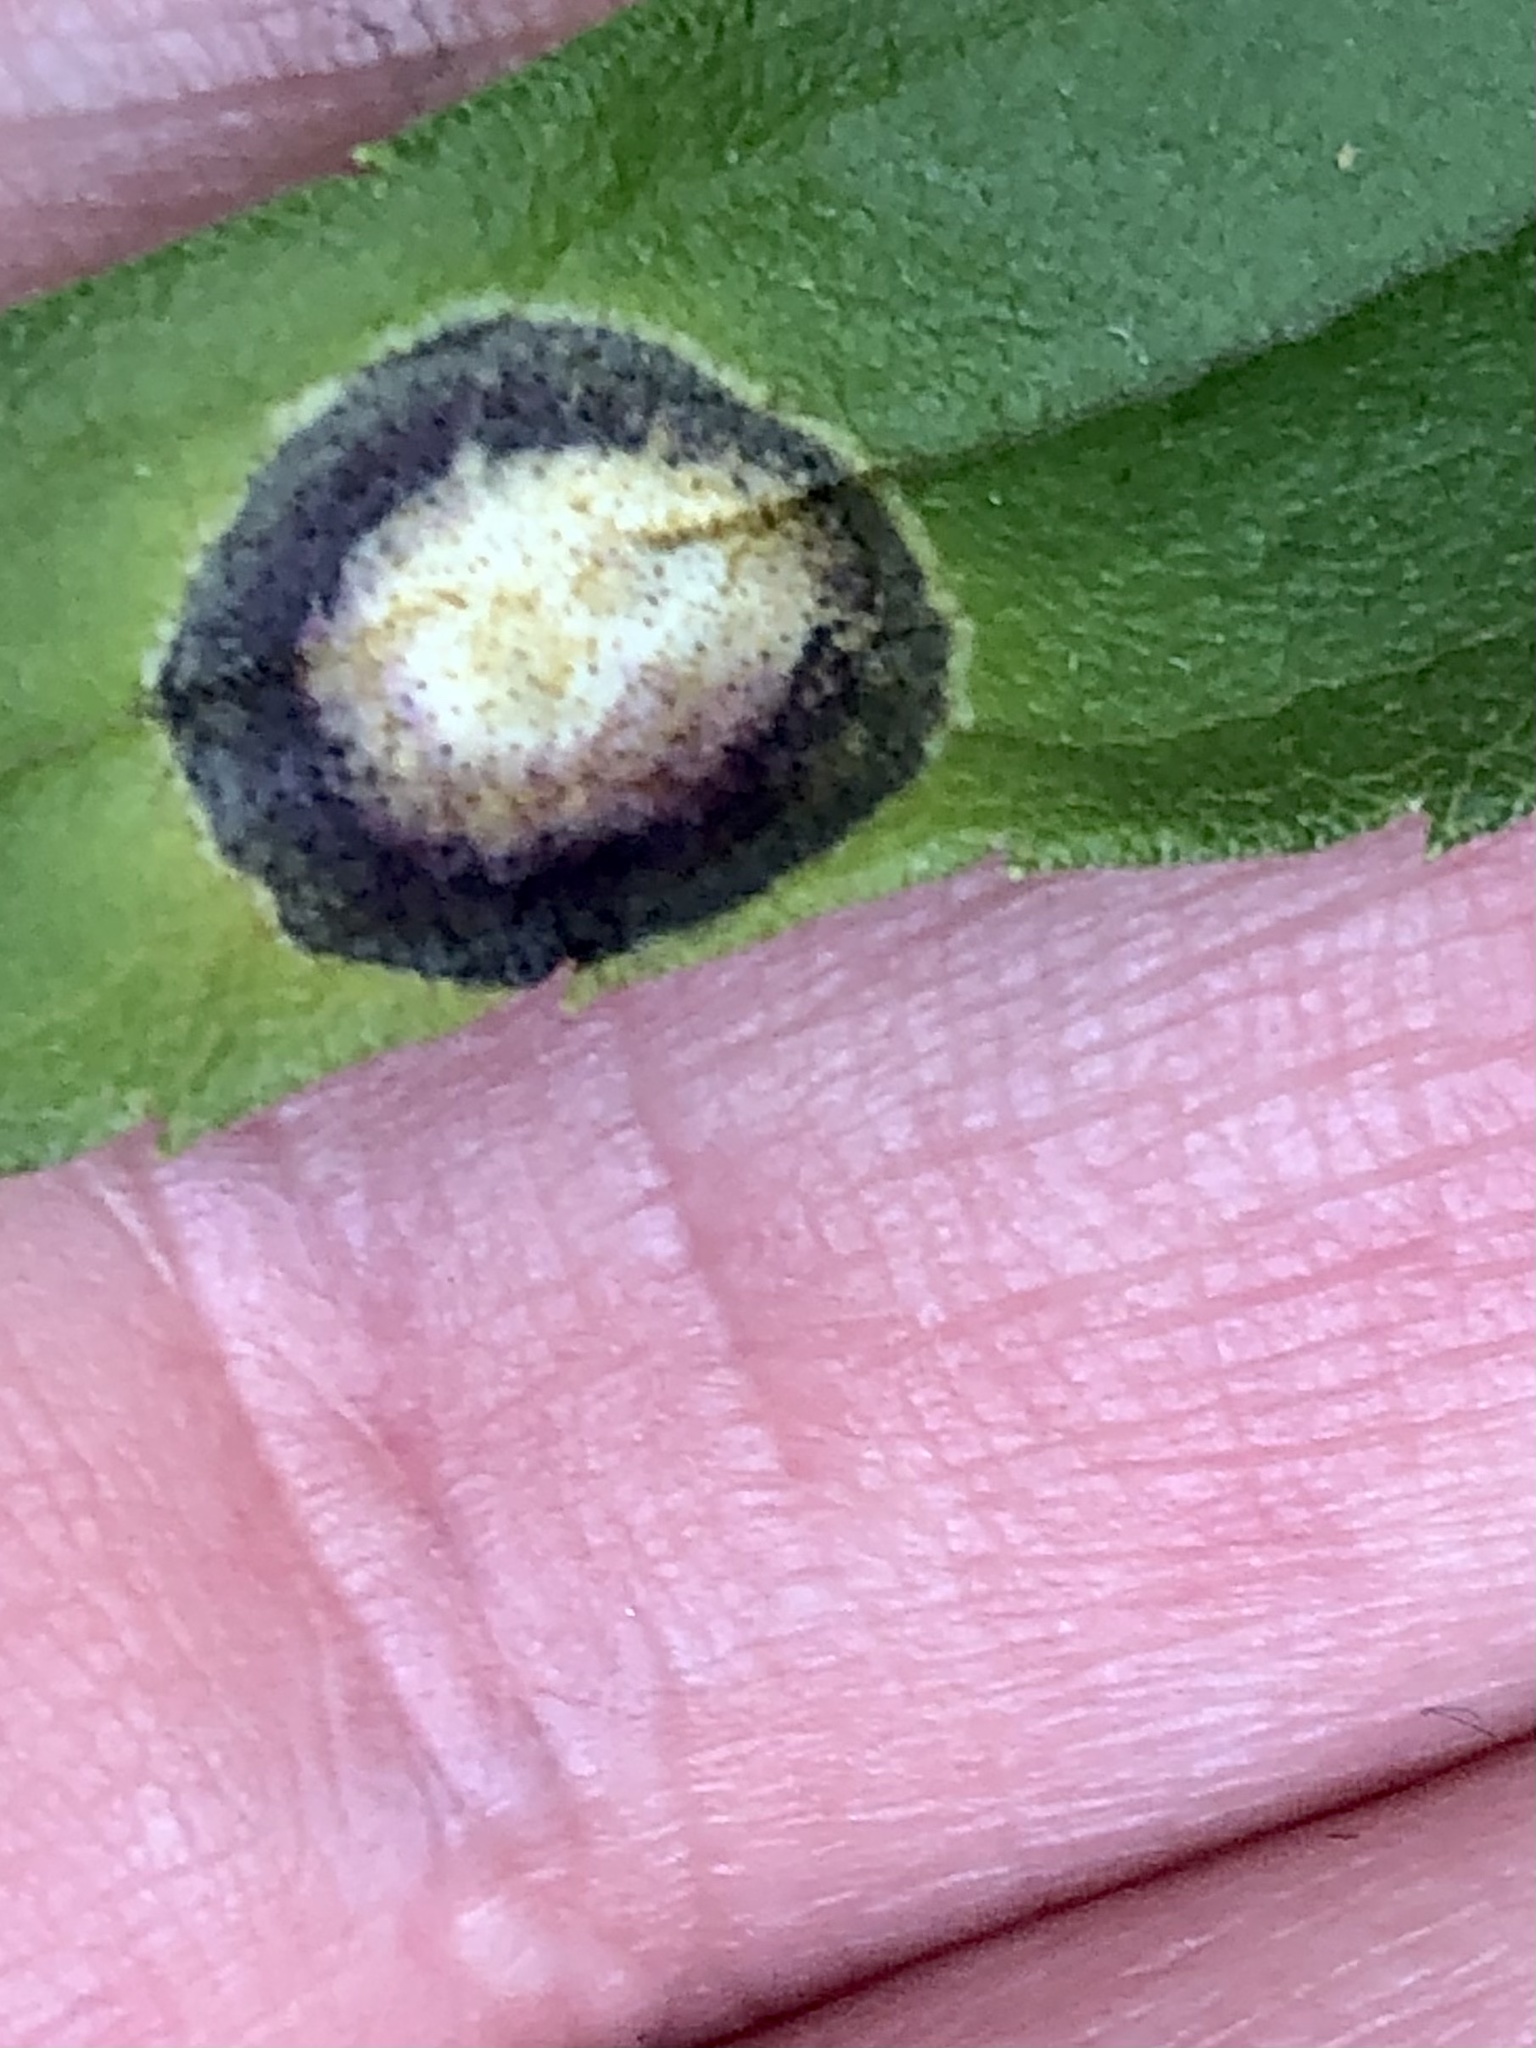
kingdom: Animalia
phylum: Arthropoda
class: Insecta
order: Diptera
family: Cecidomyiidae
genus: Asteromyia
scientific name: Asteromyia carbonifera
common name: Carbonifera goldenrod gall midge
